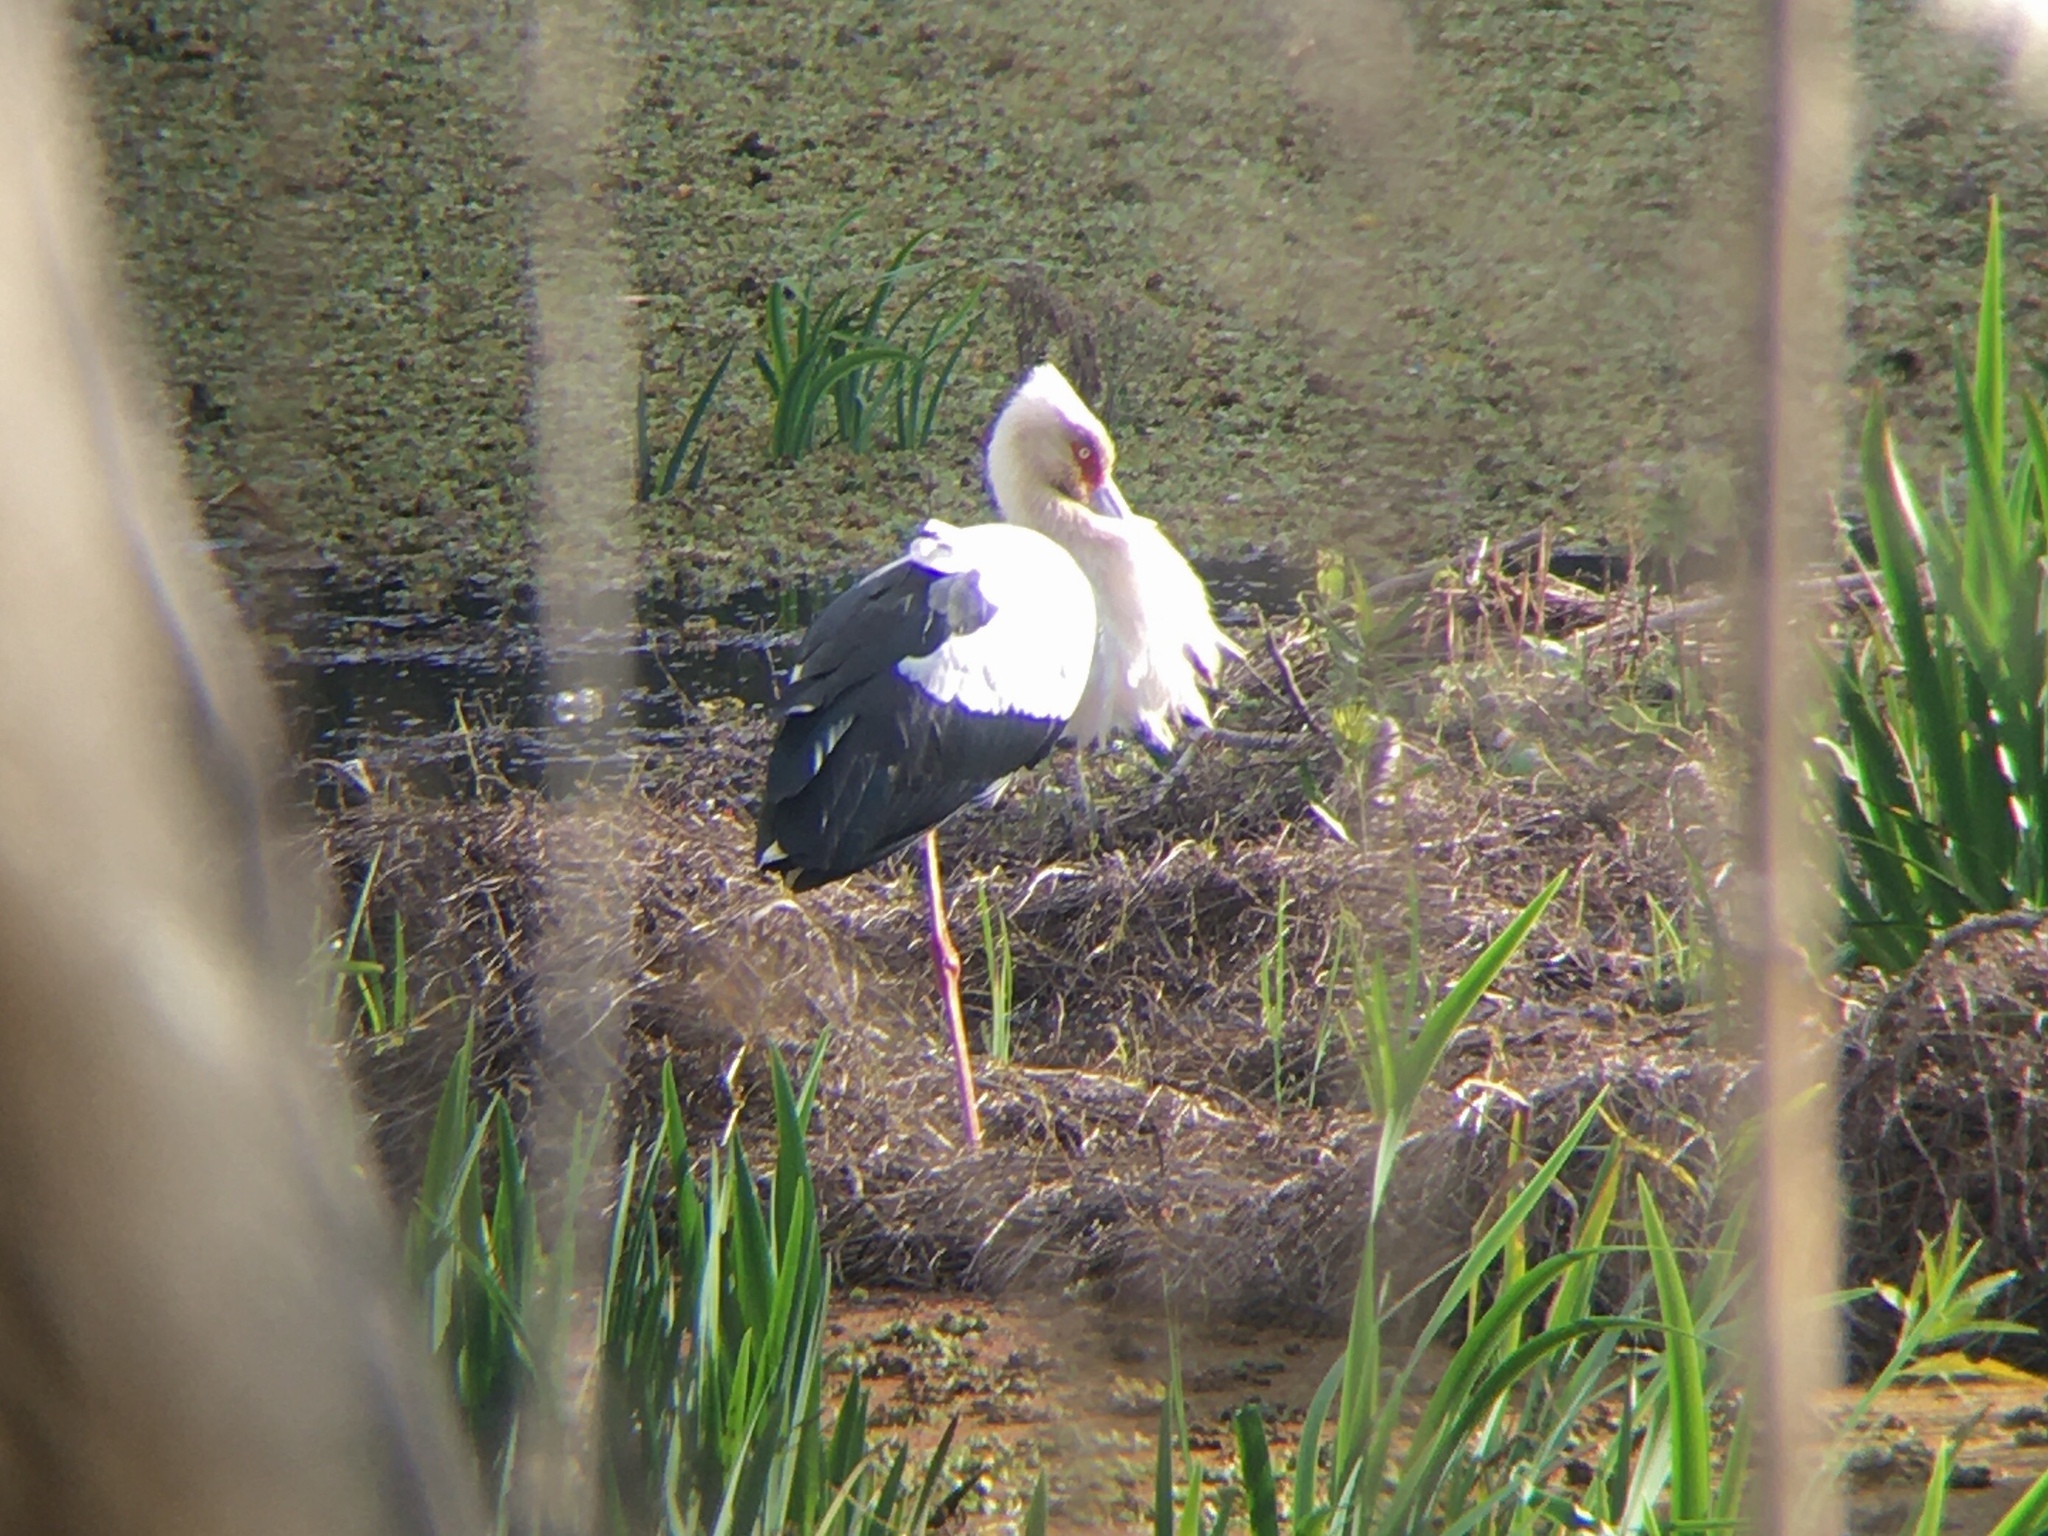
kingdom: Animalia
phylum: Chordata
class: Aves
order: Ciconiiformes
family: Ciconiidae
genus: Ciconia
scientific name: Ciconia maguari
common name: Maguari stork
